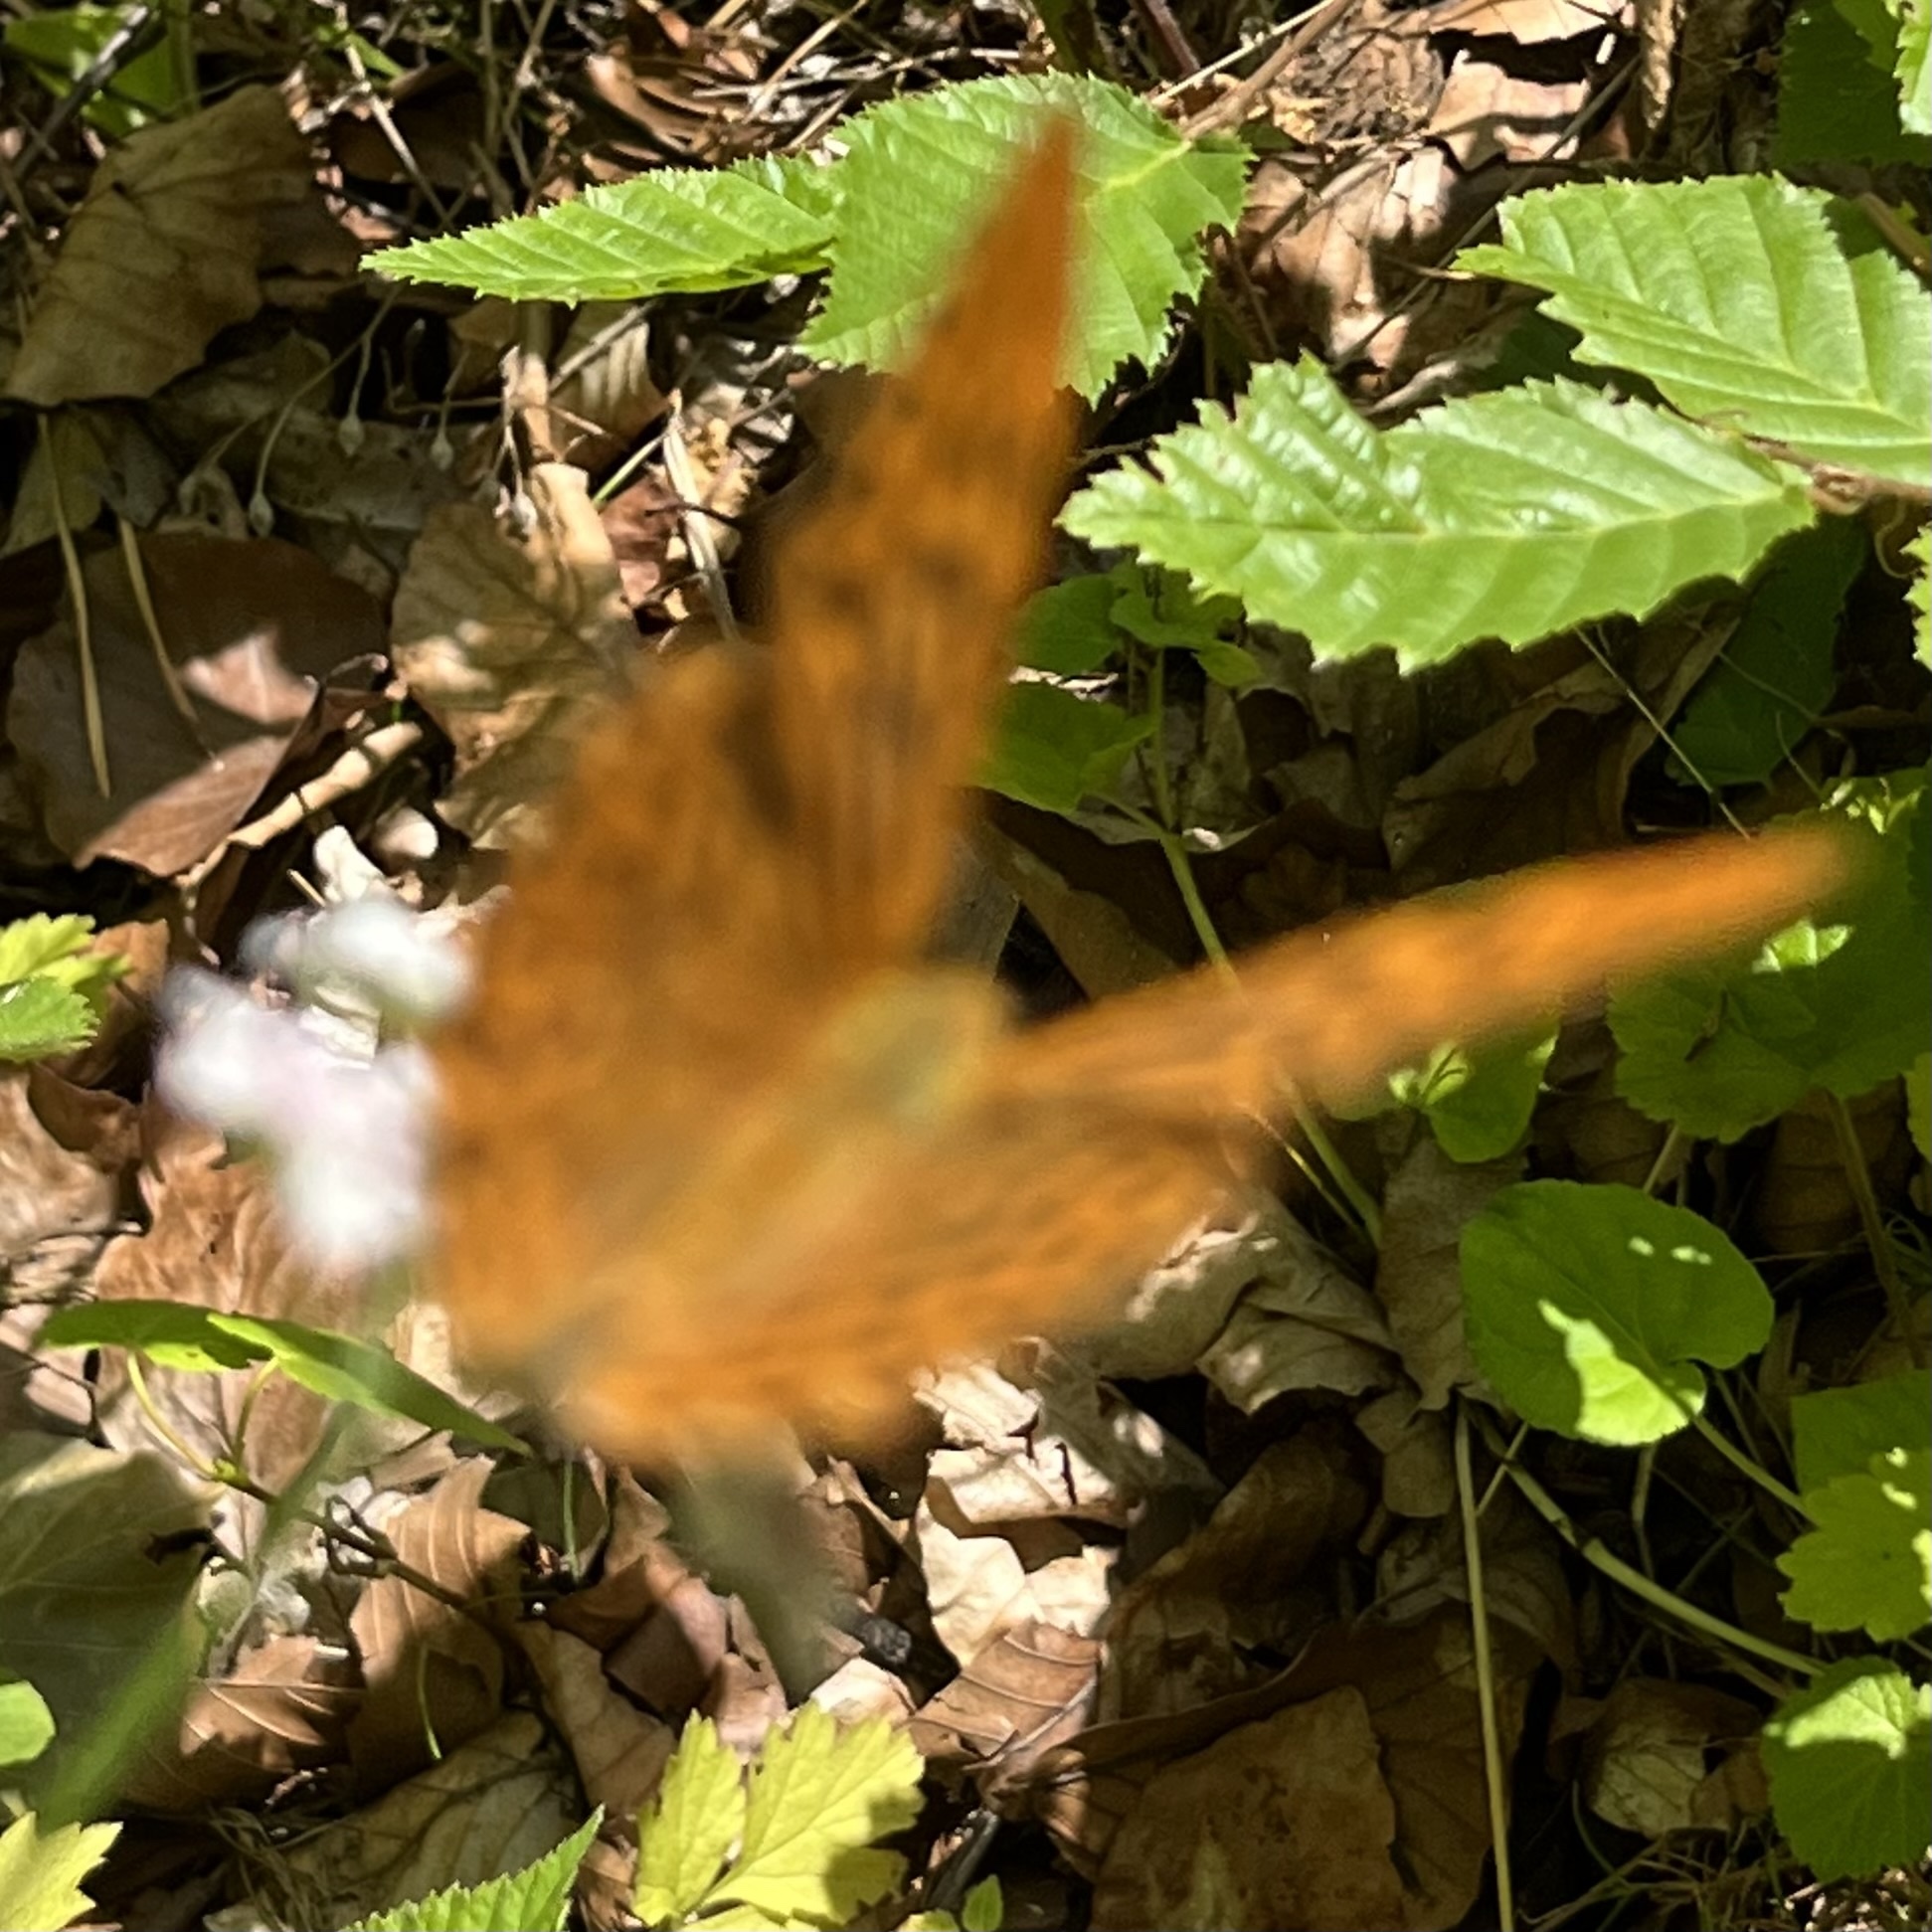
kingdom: Animalia
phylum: Arthropoda
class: Insecta
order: Lepidoptera
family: Nymphalidae
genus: Argynnis
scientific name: Argynnis paphia
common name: Silver-washed fritillary
